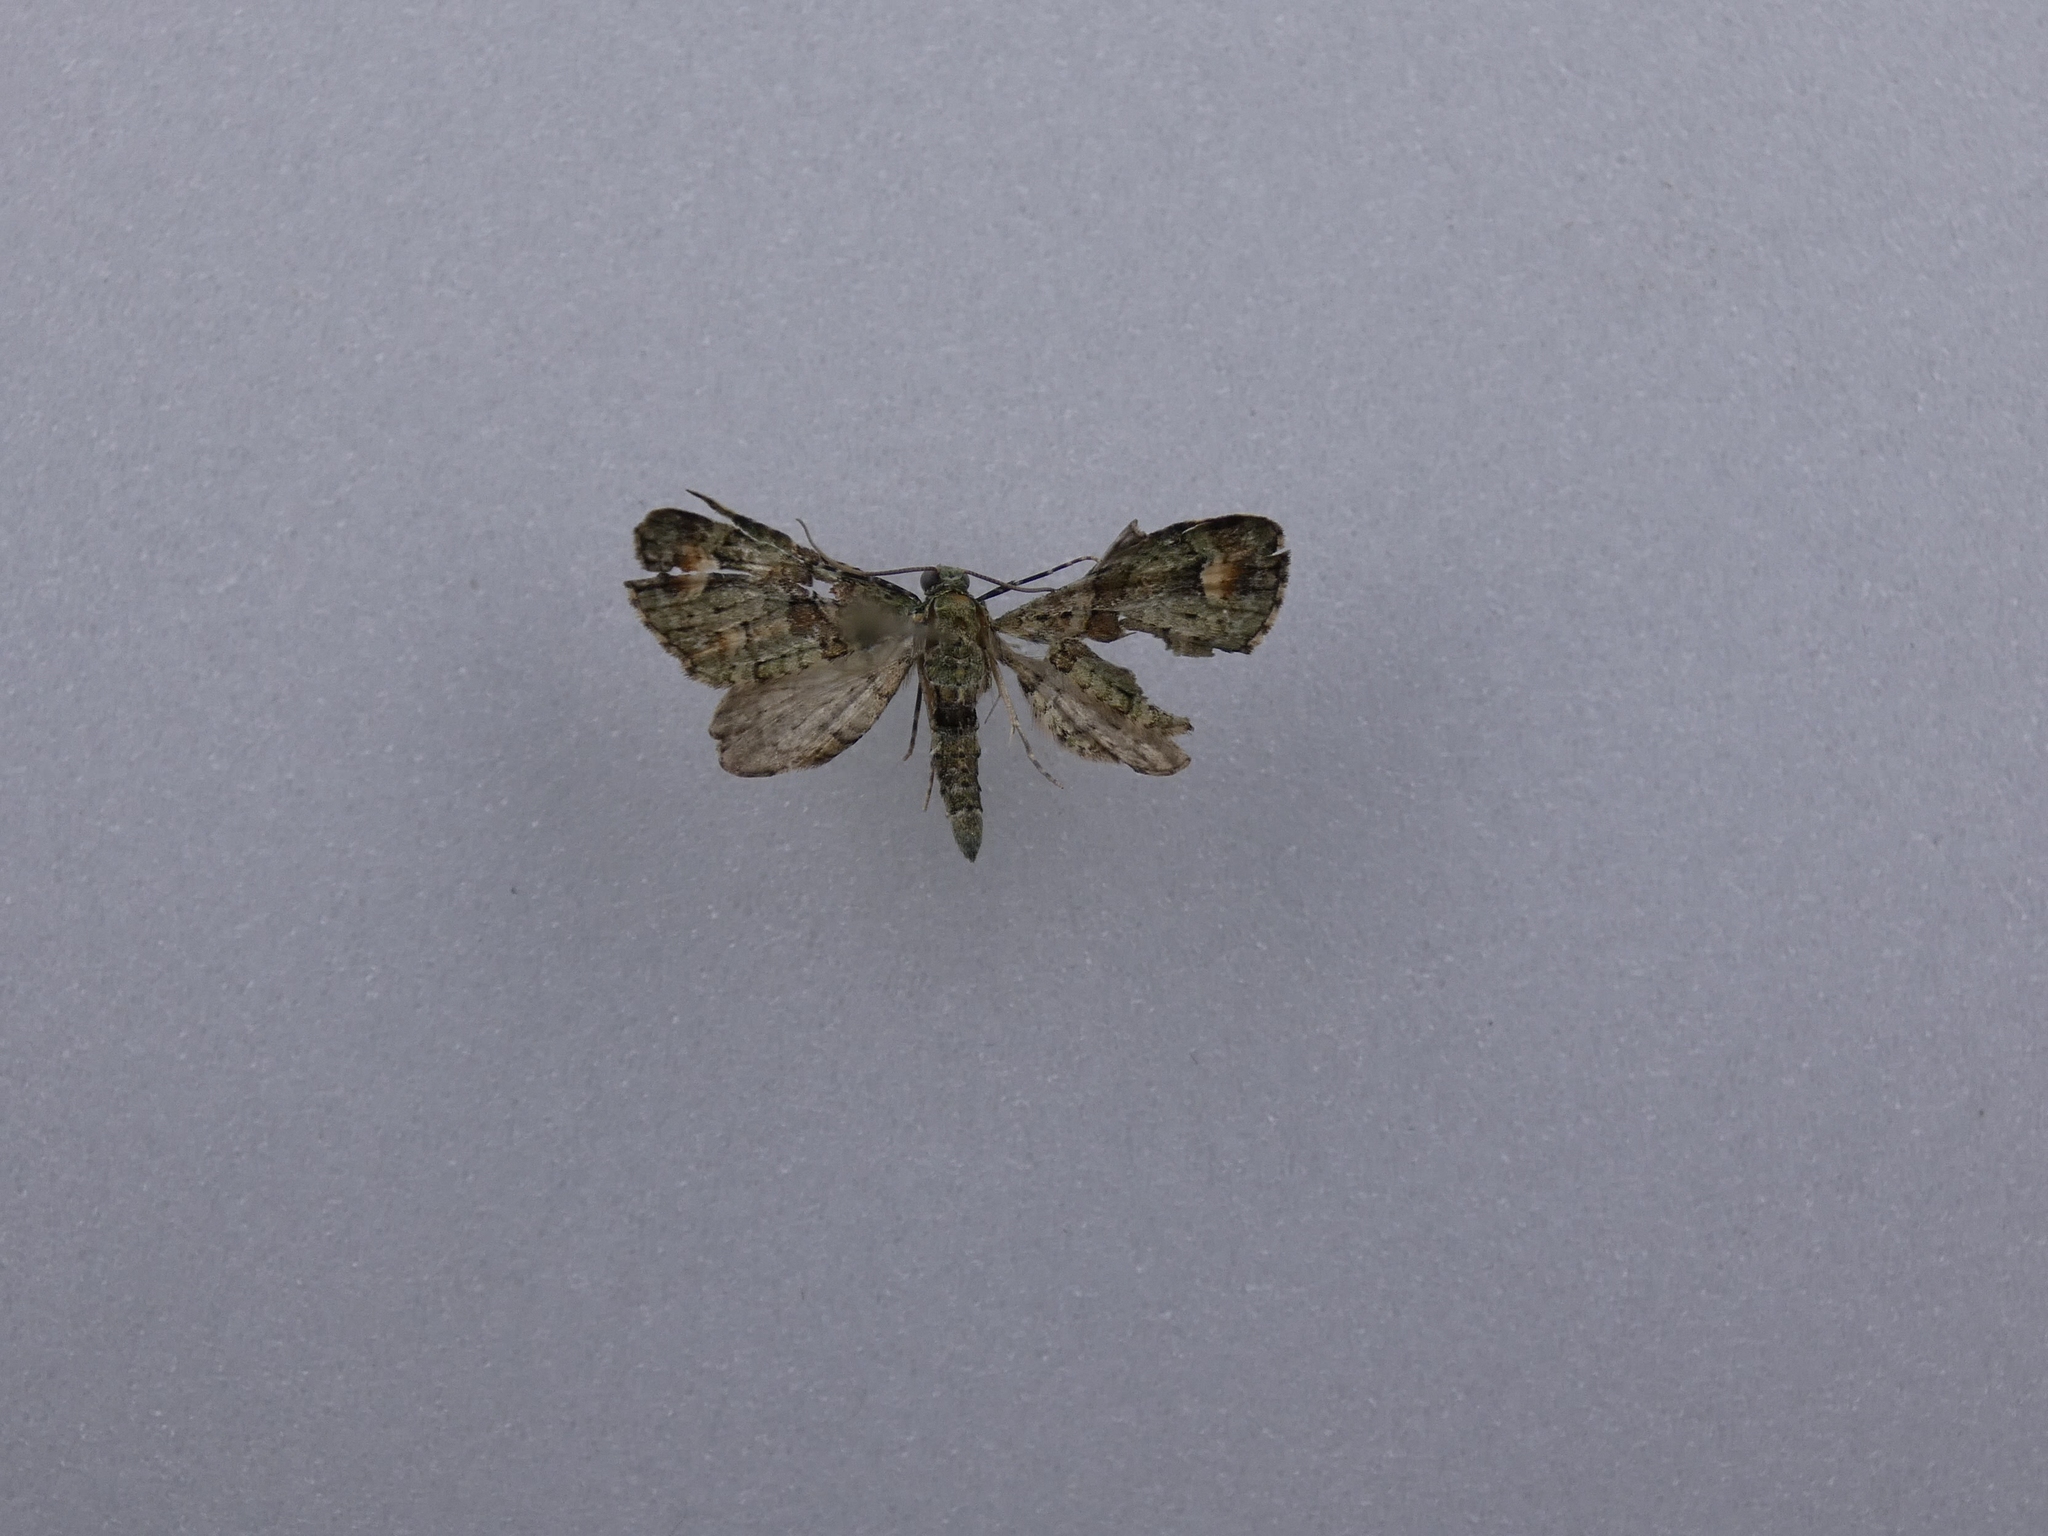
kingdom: Animalia
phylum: Arthropoda
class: Insecta
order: Lepidoptera
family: Geometridae
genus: Idaea
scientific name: Idaea mutanda
